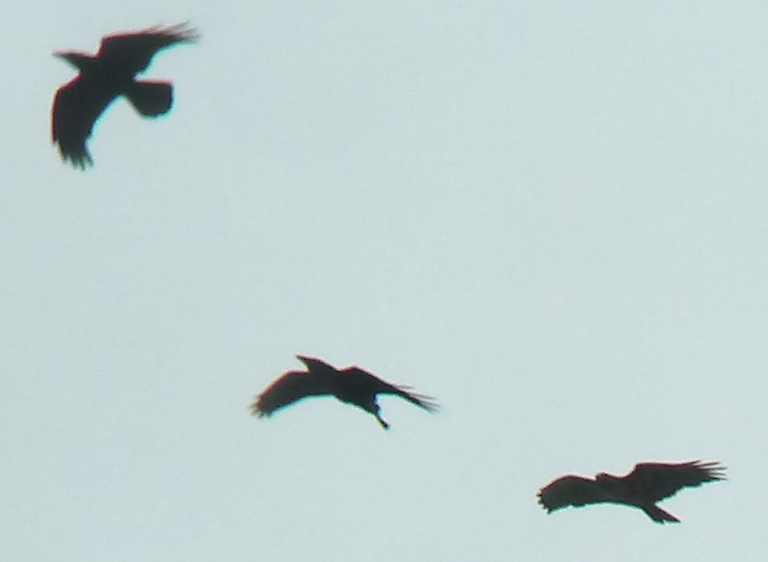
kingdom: Animalia
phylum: Chordata
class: Aves
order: Accipitriformes
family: Accipitridae
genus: Buteo
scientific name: Buteo jamaicensis
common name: Red-tailed hawk
